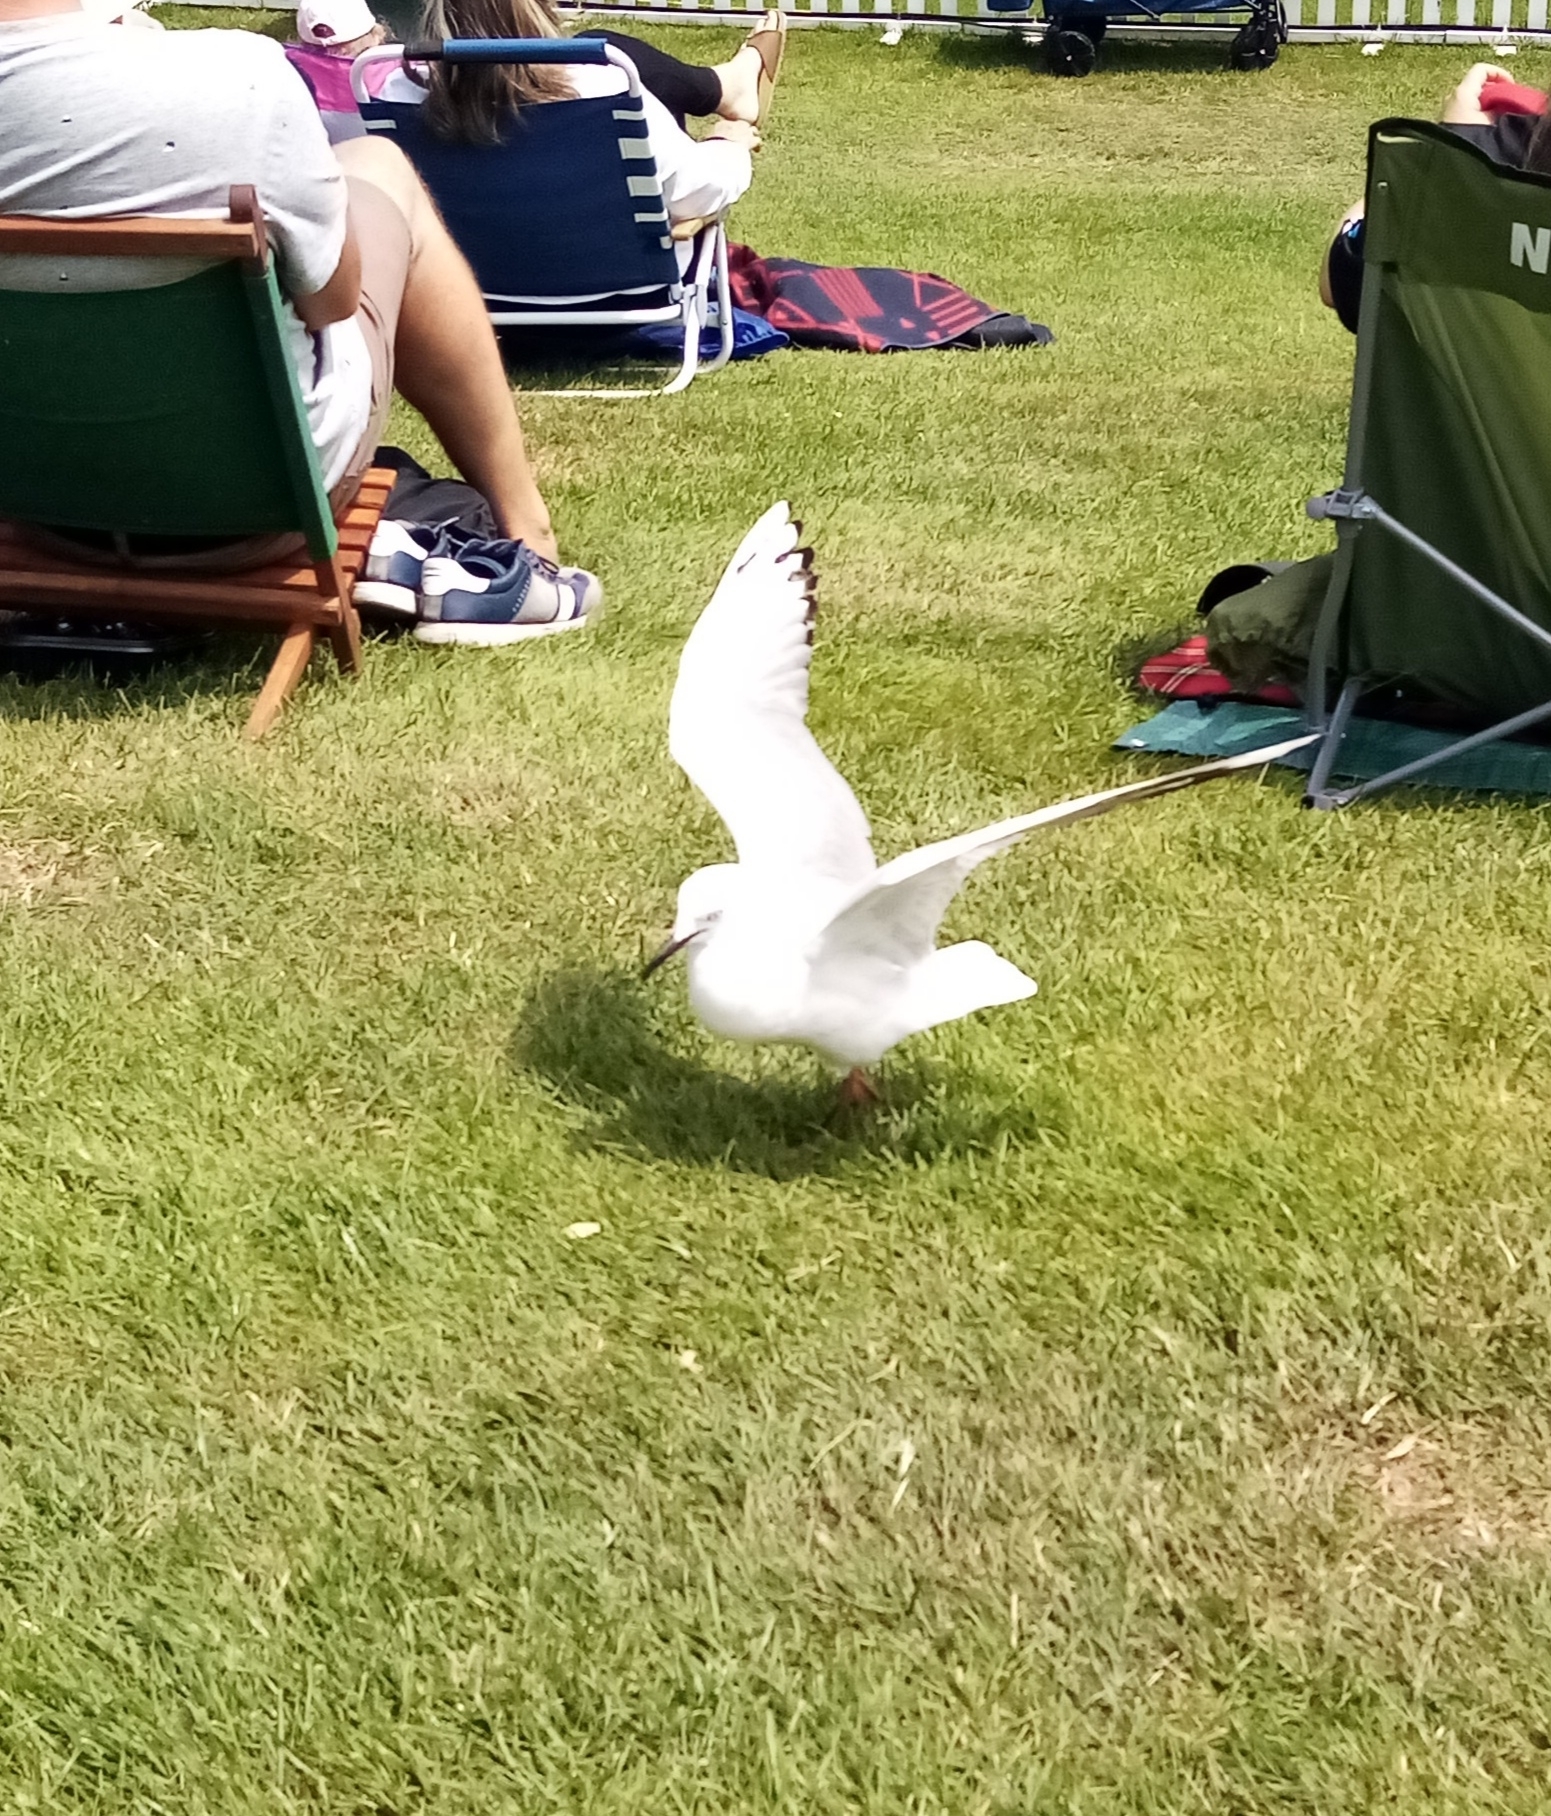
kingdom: Animalia
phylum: Chordata
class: Aves
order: Charadriiformes
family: Laridae
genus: Chroicocephalus
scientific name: Chroicocephalus bulleri
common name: Black-billed gull
